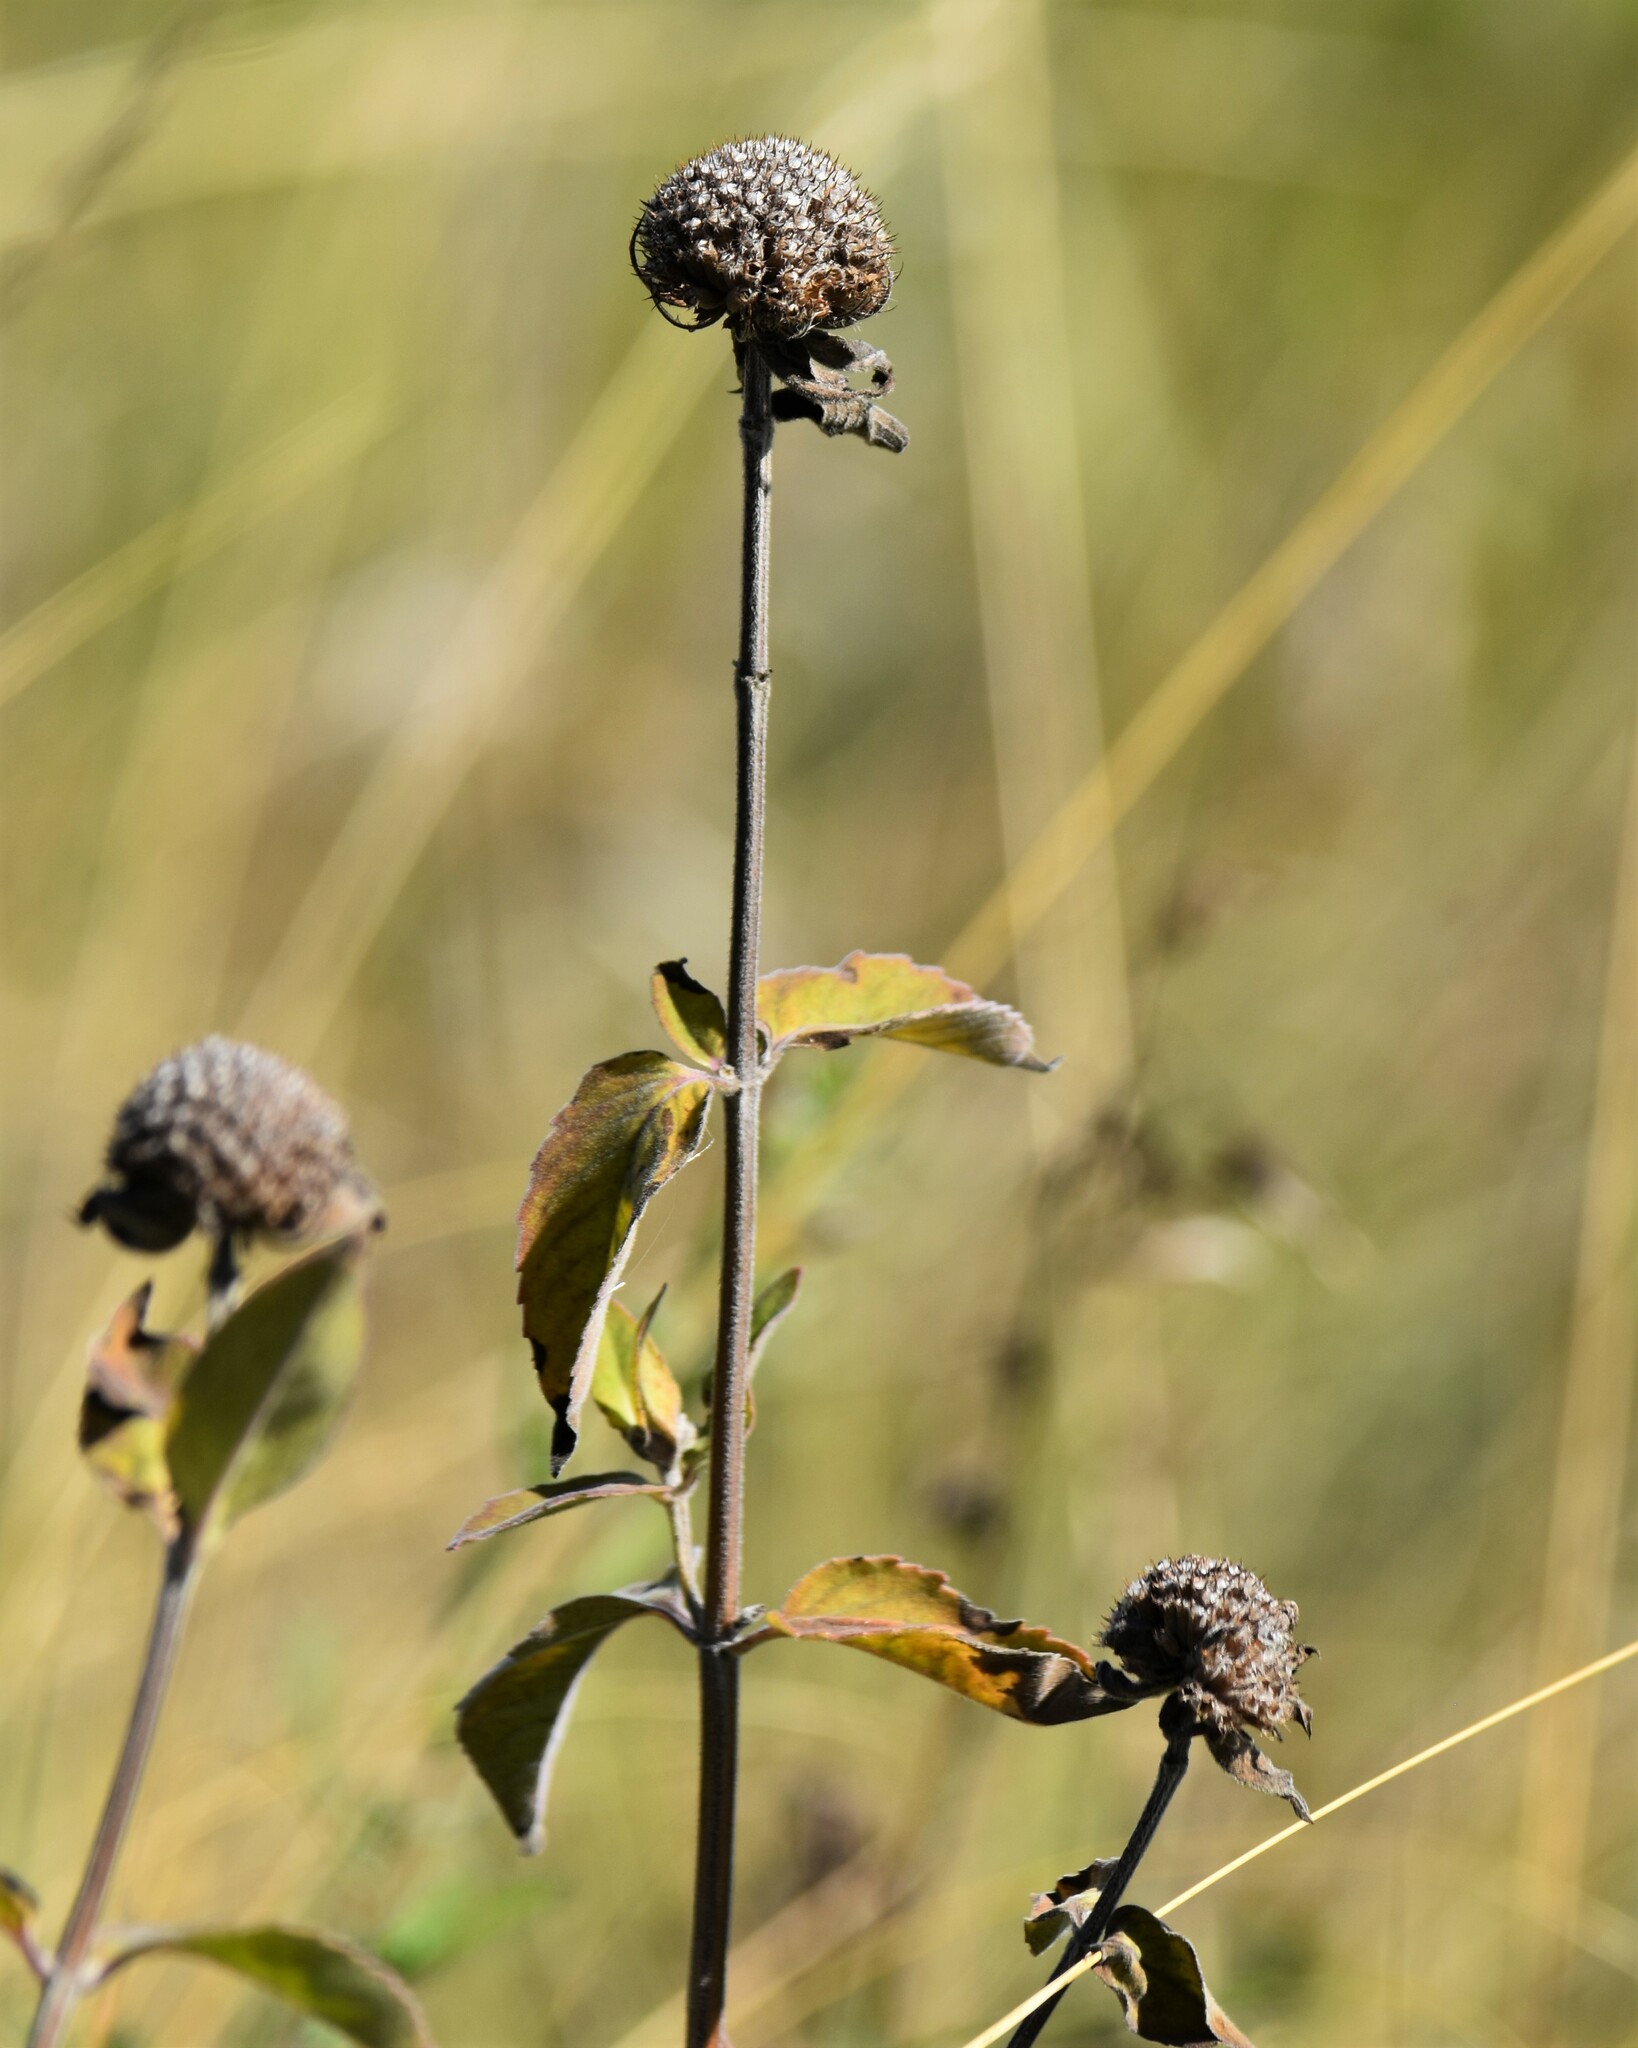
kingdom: Plantae
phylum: Tracheophyta
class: Magnoliopsida
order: Lamiales
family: Lamiaceae
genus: Monarda
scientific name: Monarda fistulosa
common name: Purple beebalm
